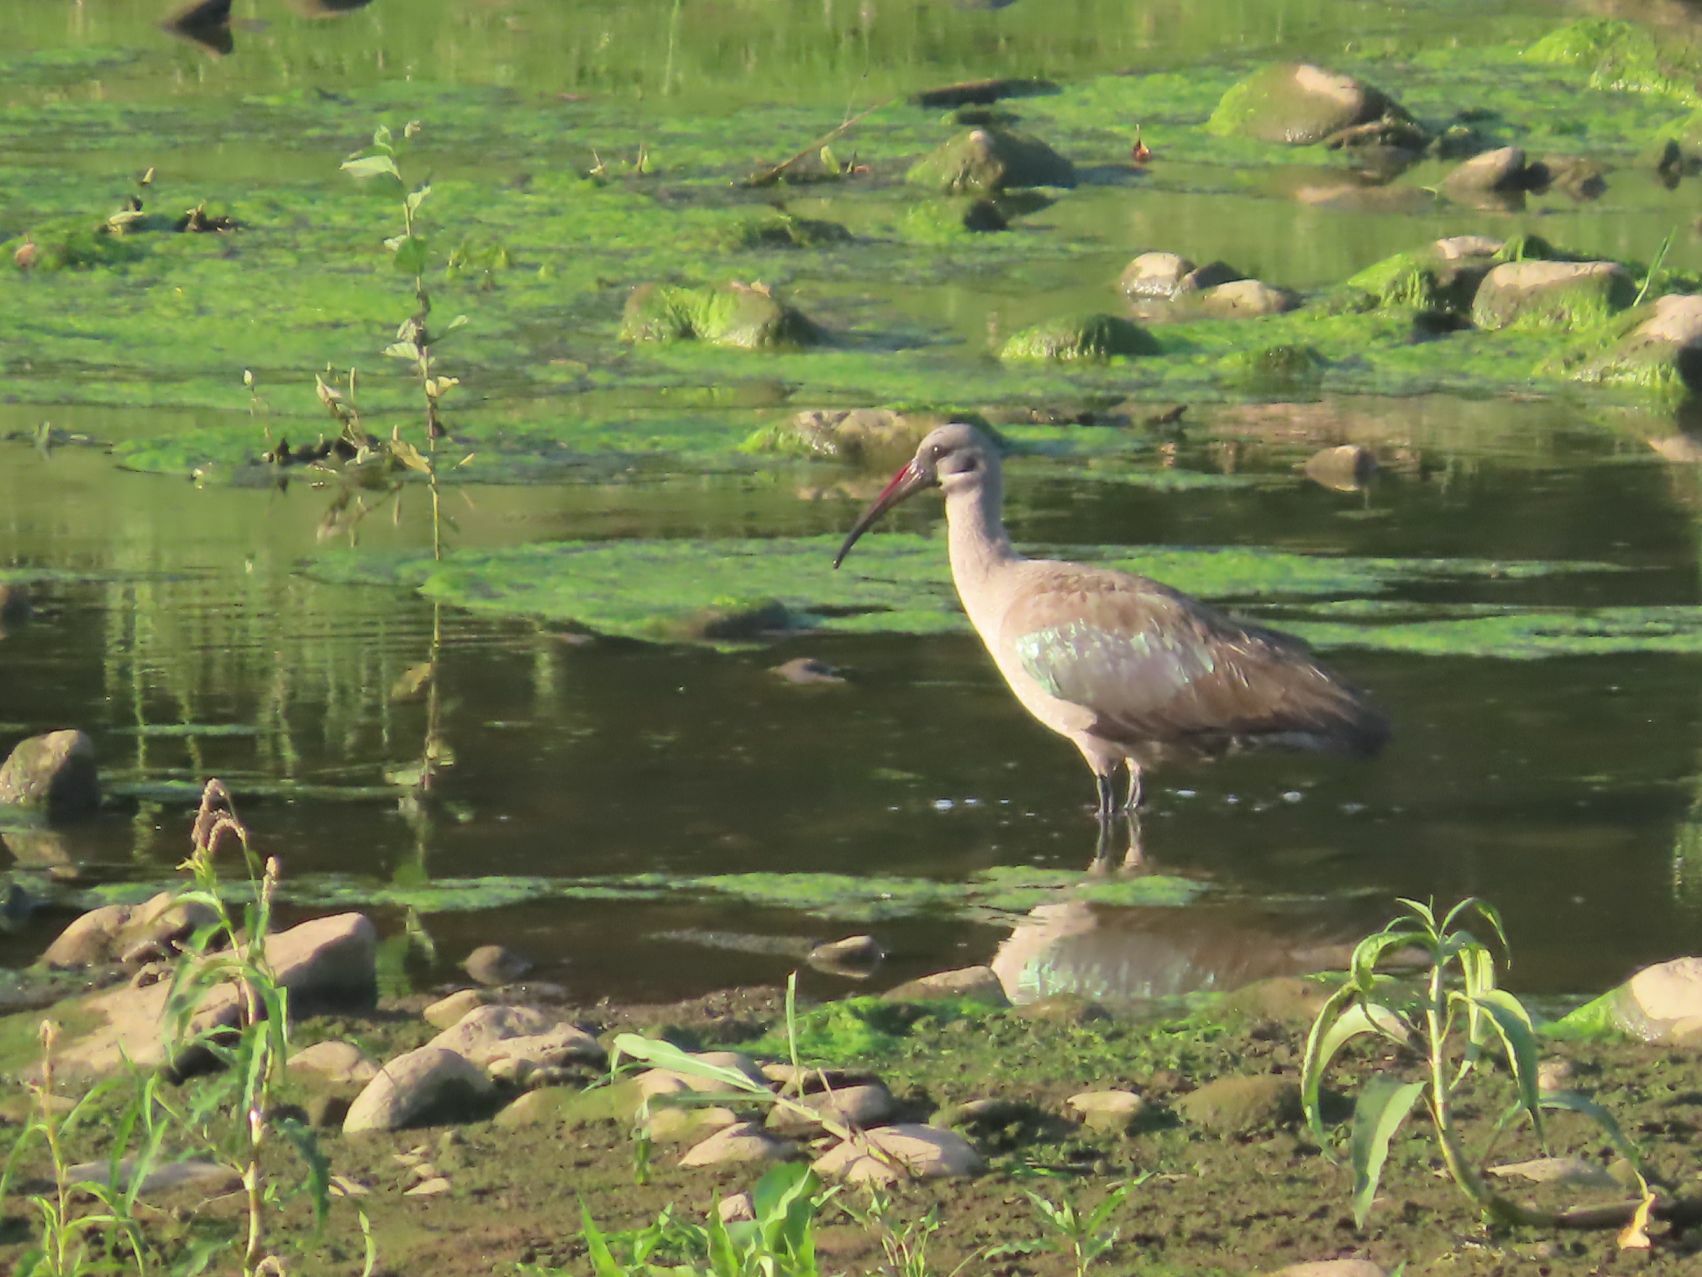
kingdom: Animalia
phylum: Chordata
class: Aves
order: Pelecaniformes
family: Threskiornithidae
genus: Bostrychia
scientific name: Bostrychia hagedash
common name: Hadada ibis
